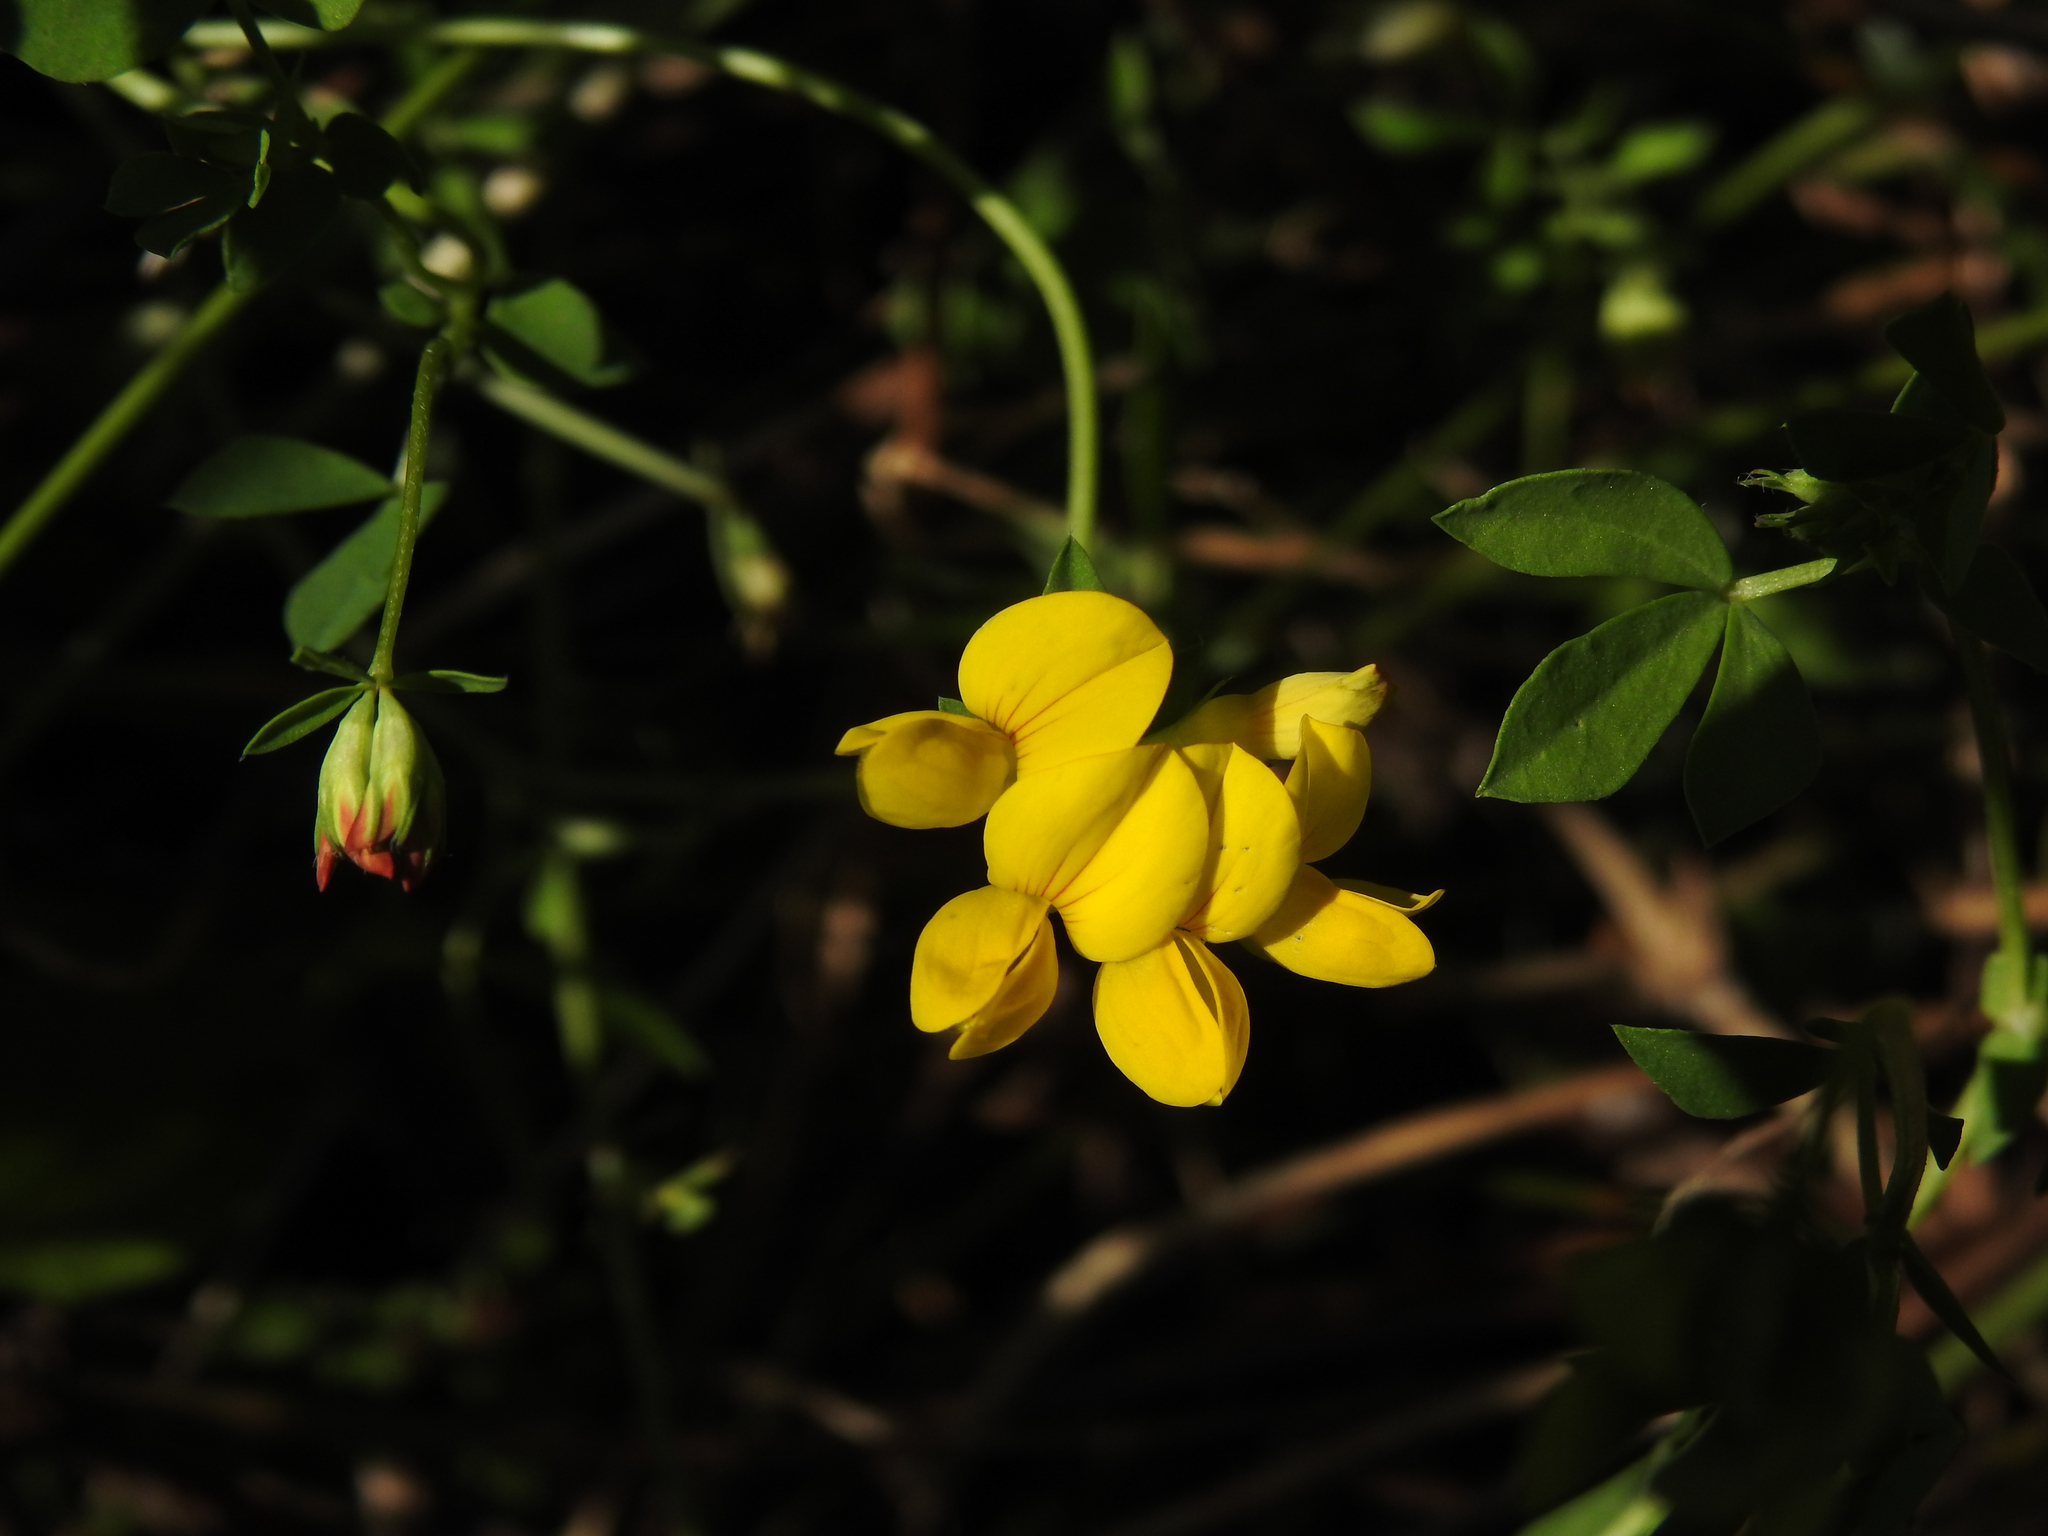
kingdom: Plantae
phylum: Tracheophyta
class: Magnoliopsida
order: Fabales
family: Fabaceae
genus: Lotus
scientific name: Lotus corniculatus
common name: Common bird's-foot-trefoil
